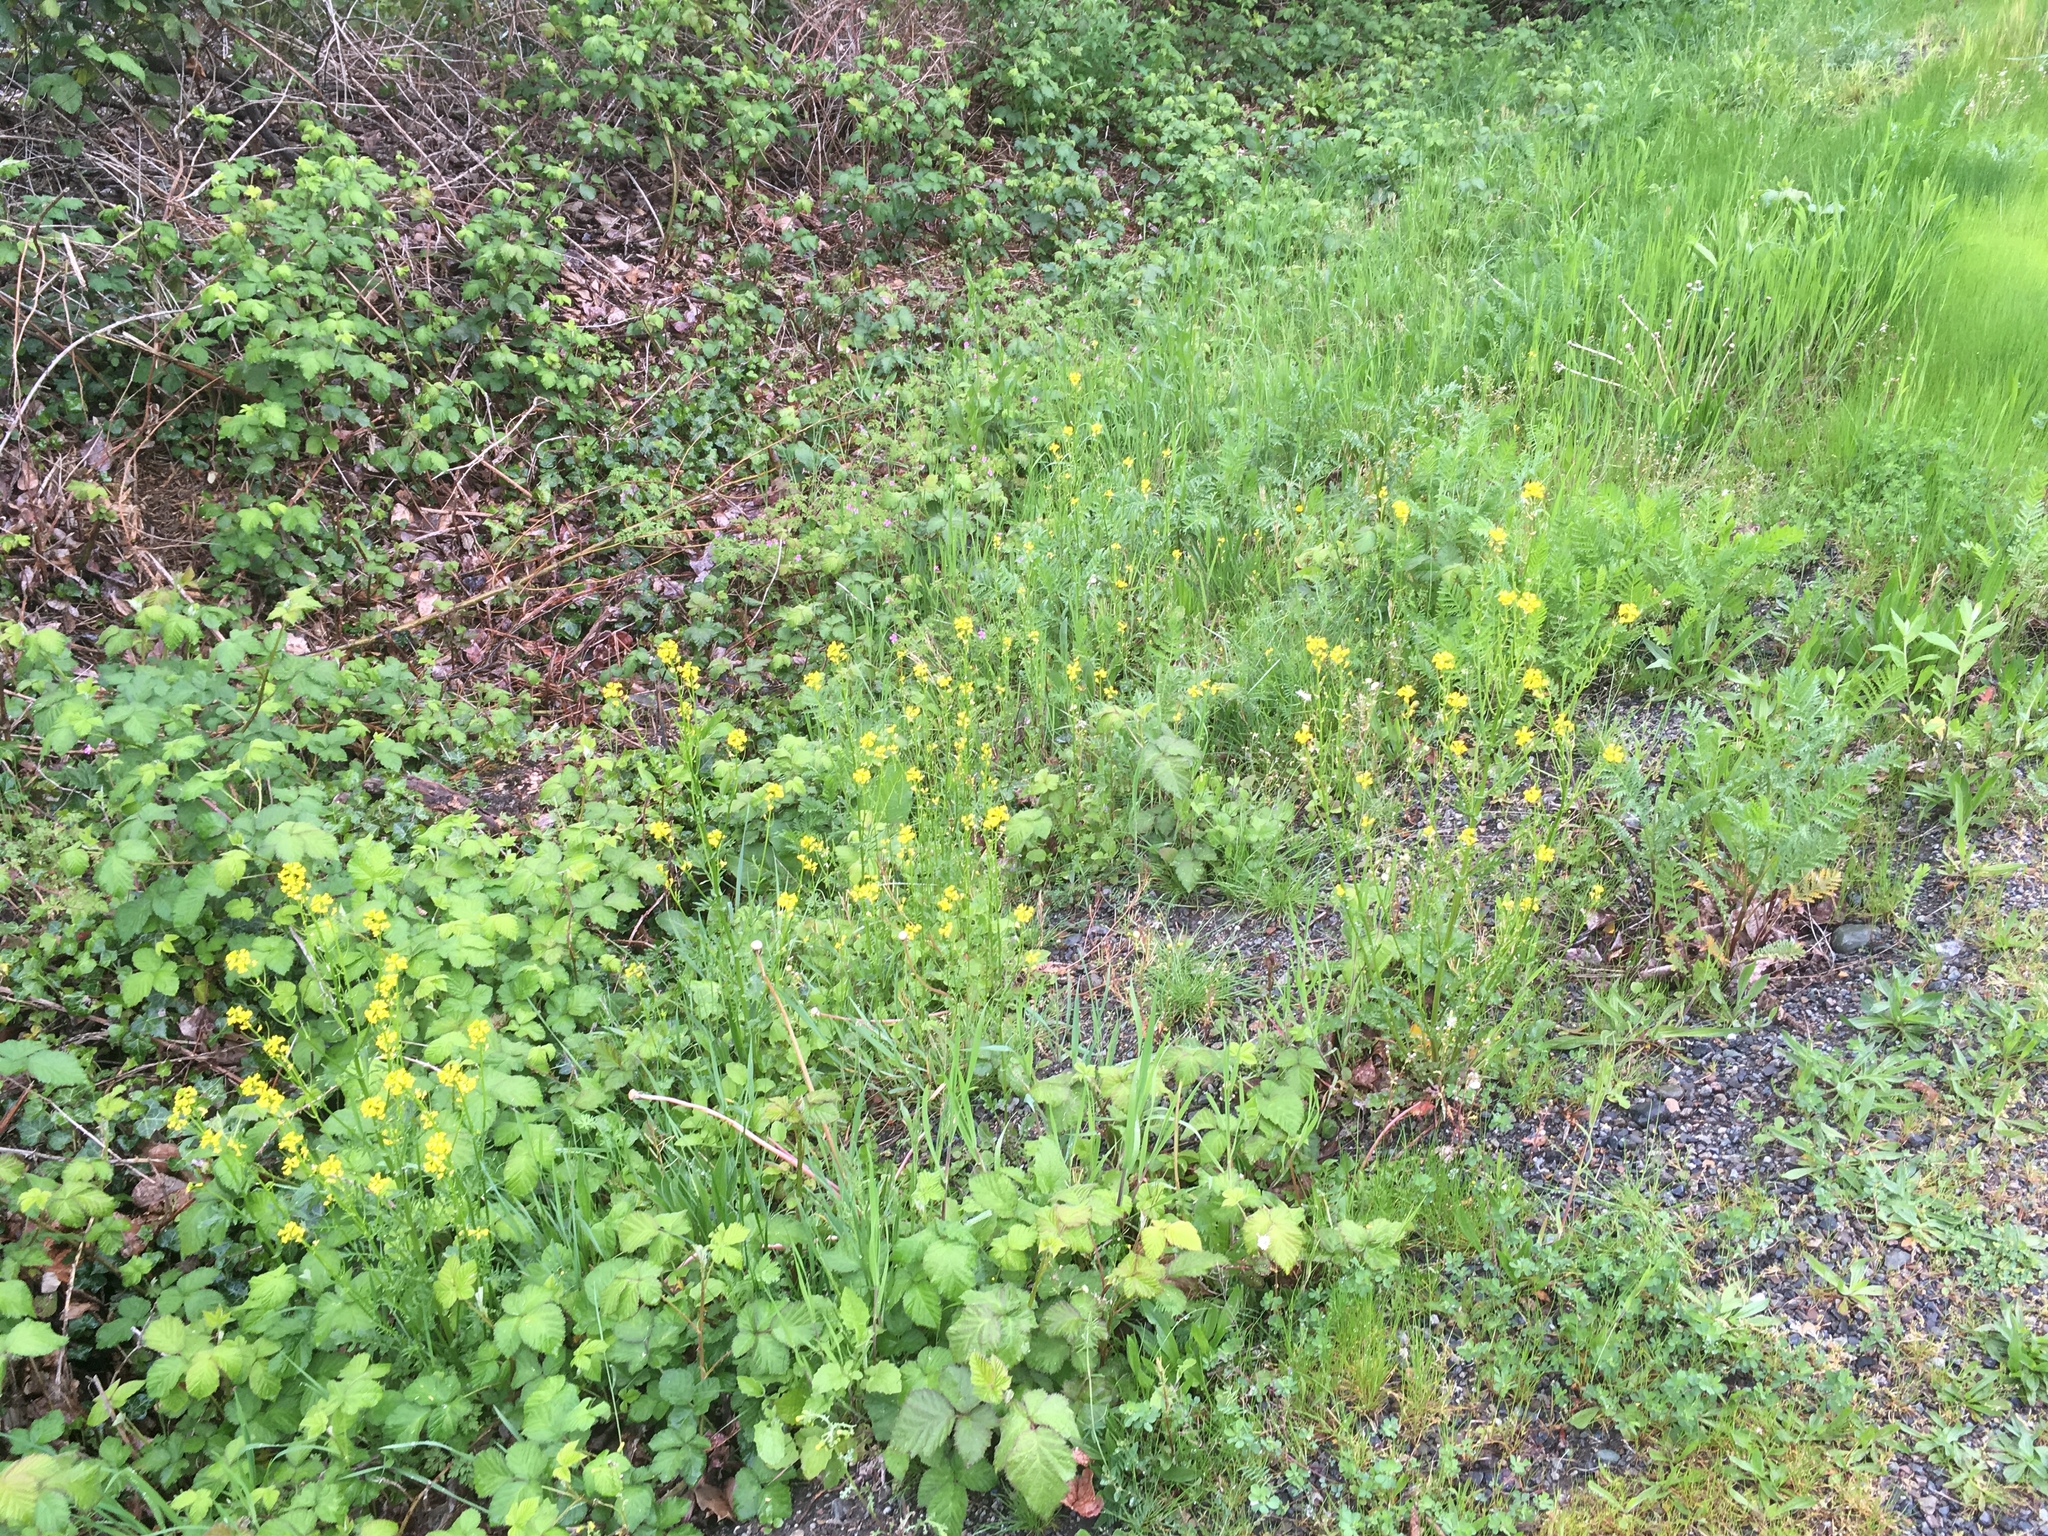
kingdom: Plantae
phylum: Tracheophyta
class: Magnoliopsida
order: Brassicales
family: Brassicaceae
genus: Barbarea
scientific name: Barbarea verna
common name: American cress
